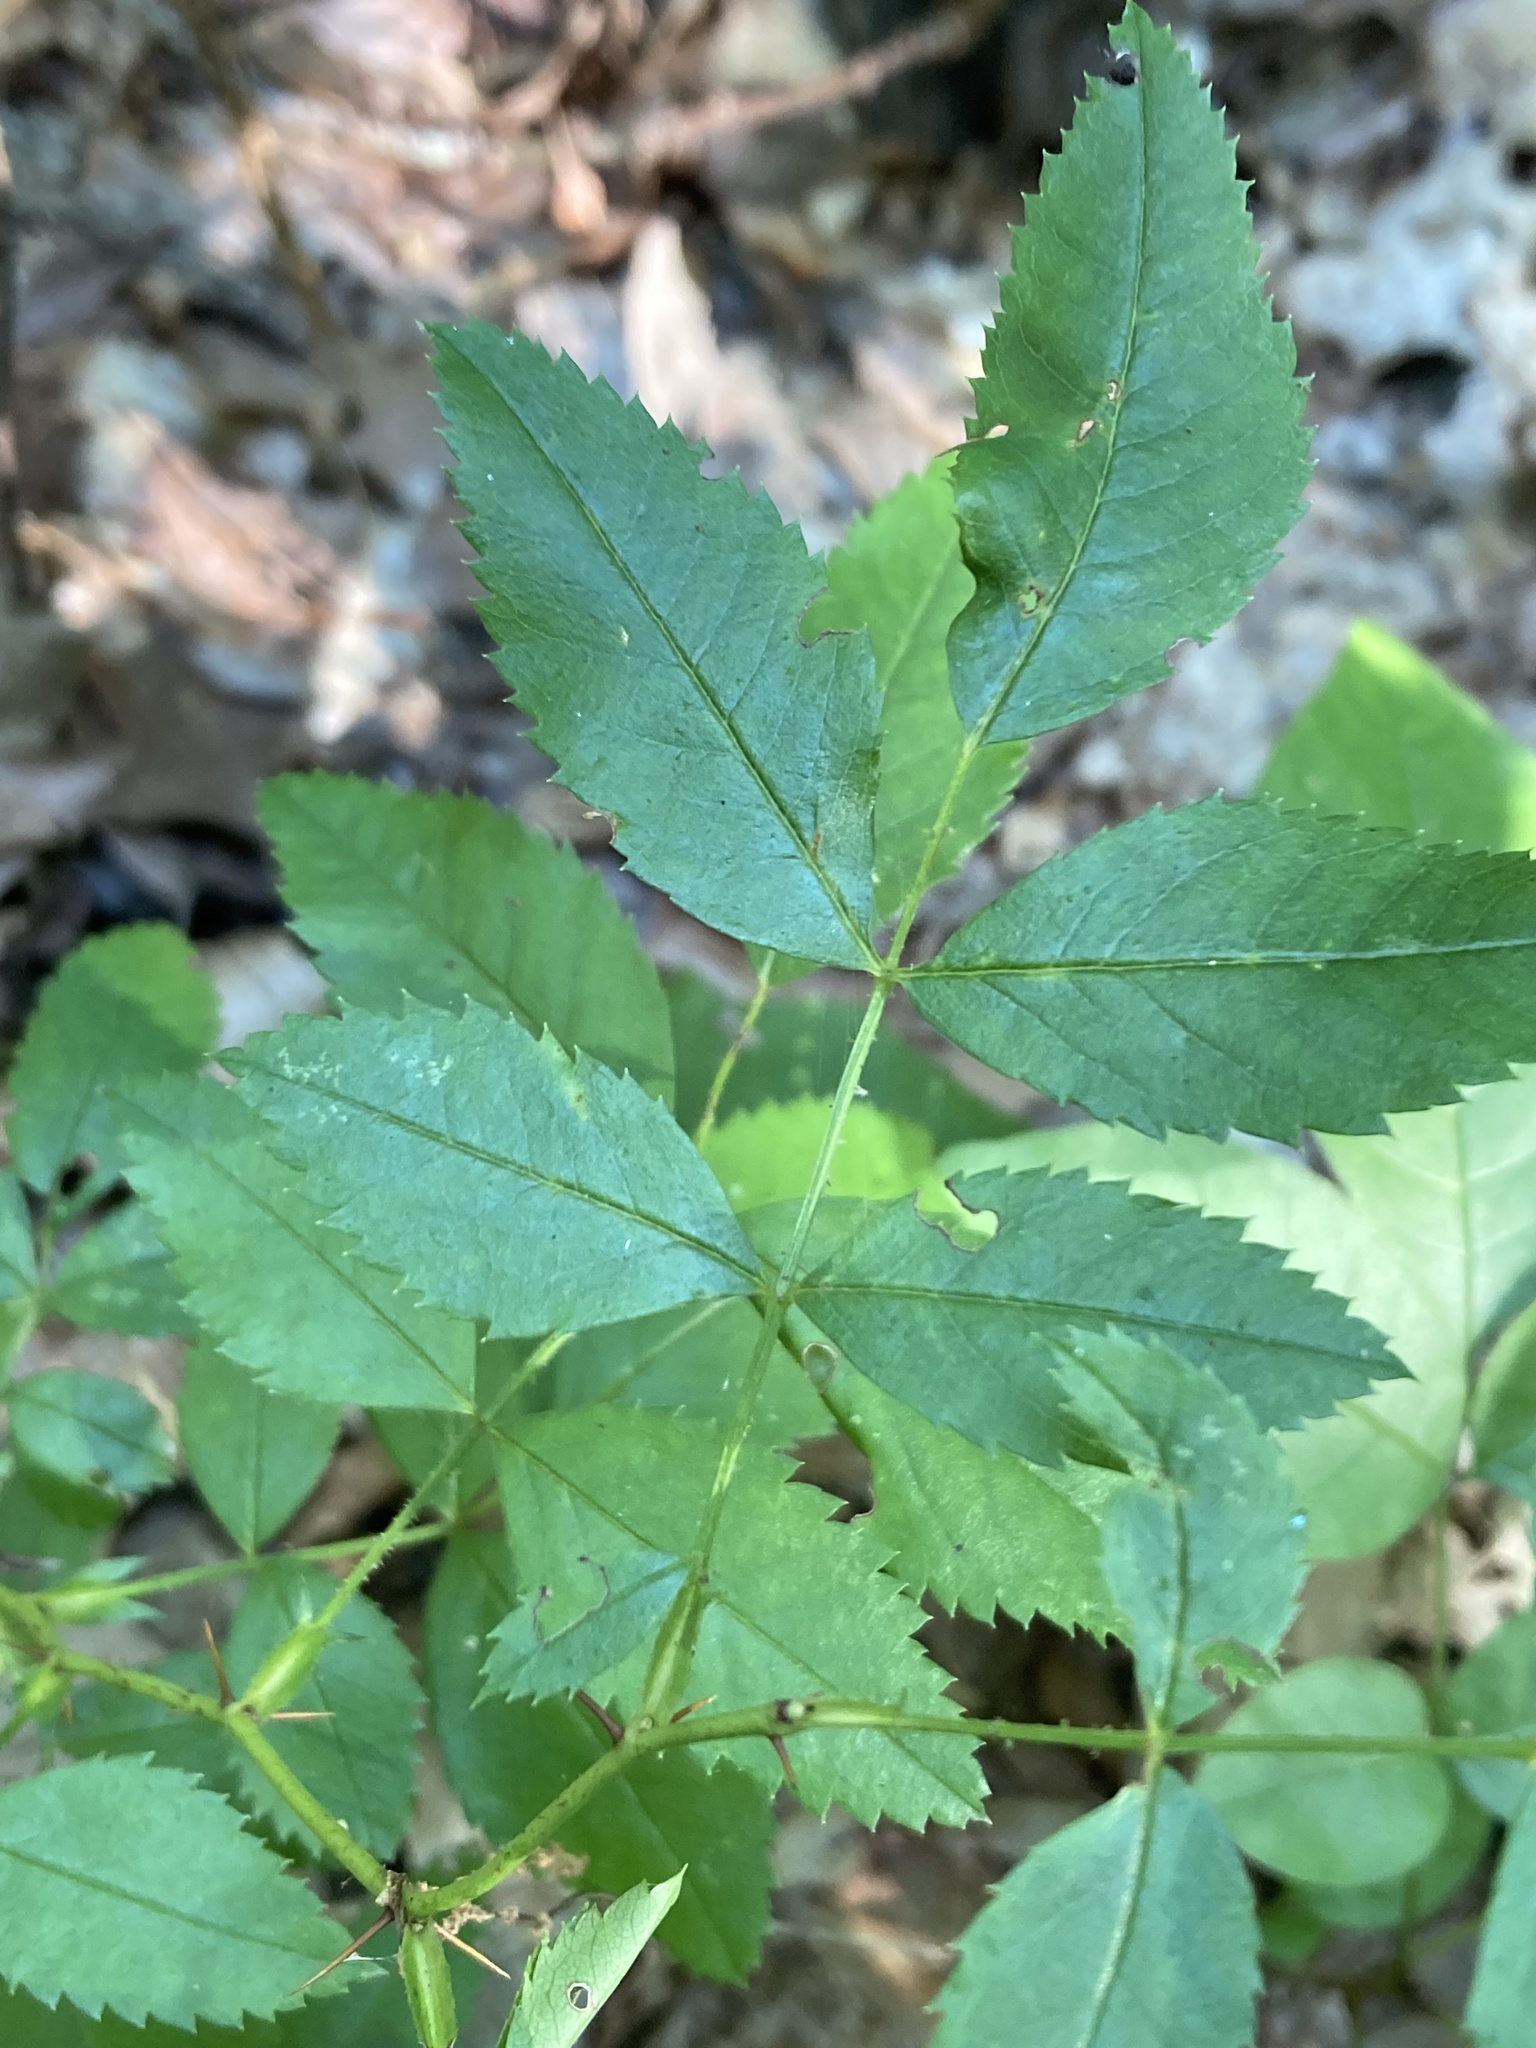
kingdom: Plantae
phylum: Tracheophyta
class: Magnoliopsida
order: Rosales
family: Rosaceae
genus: Rosa
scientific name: Rosa carolina
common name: Pasture rose
